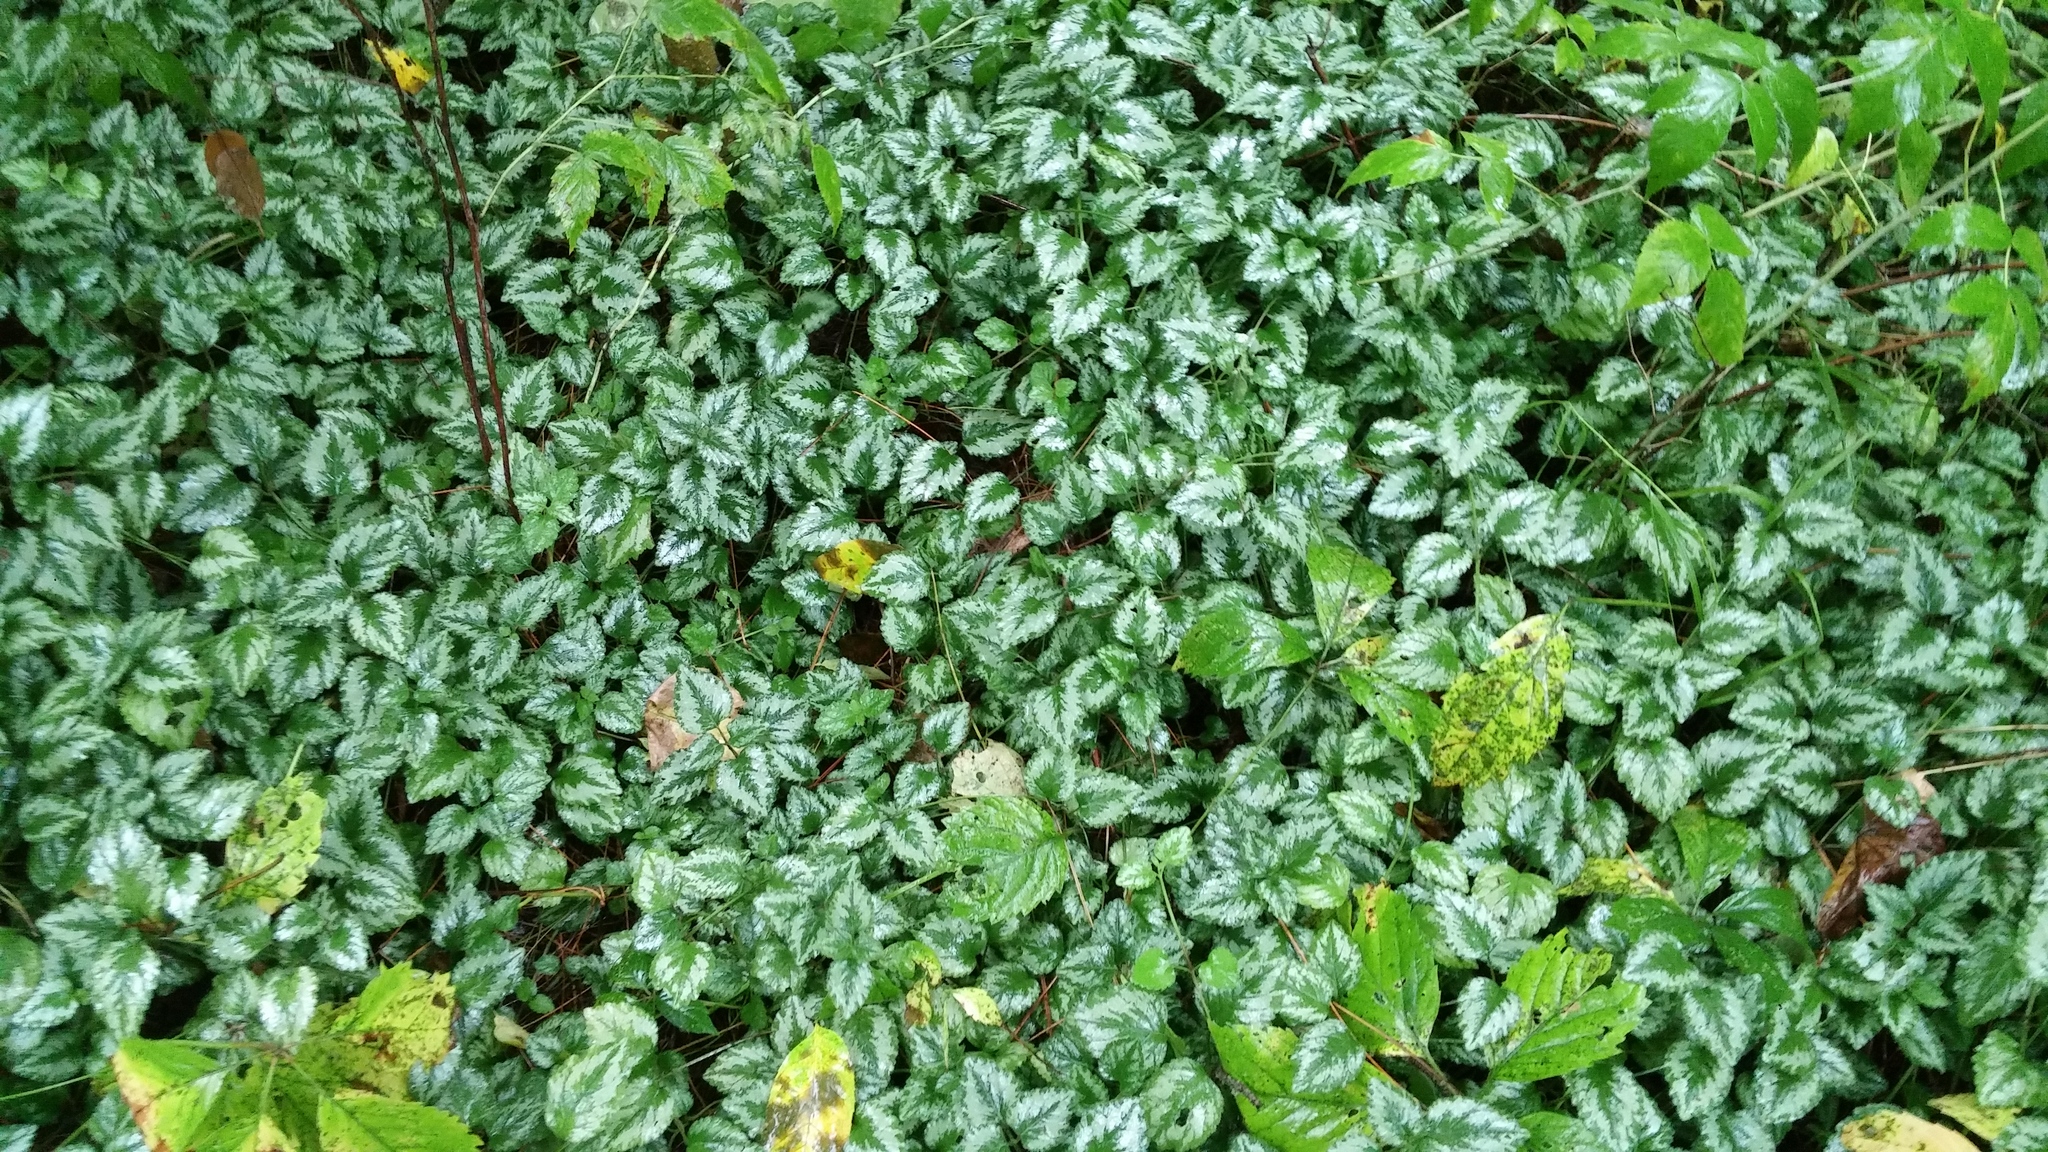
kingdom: Plantae
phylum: Tracheophyta
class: Magnoliopsida
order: Lamiales
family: Lamiaceae
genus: Lamium
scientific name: Lamium galeobdolon
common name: Yellow archangel
